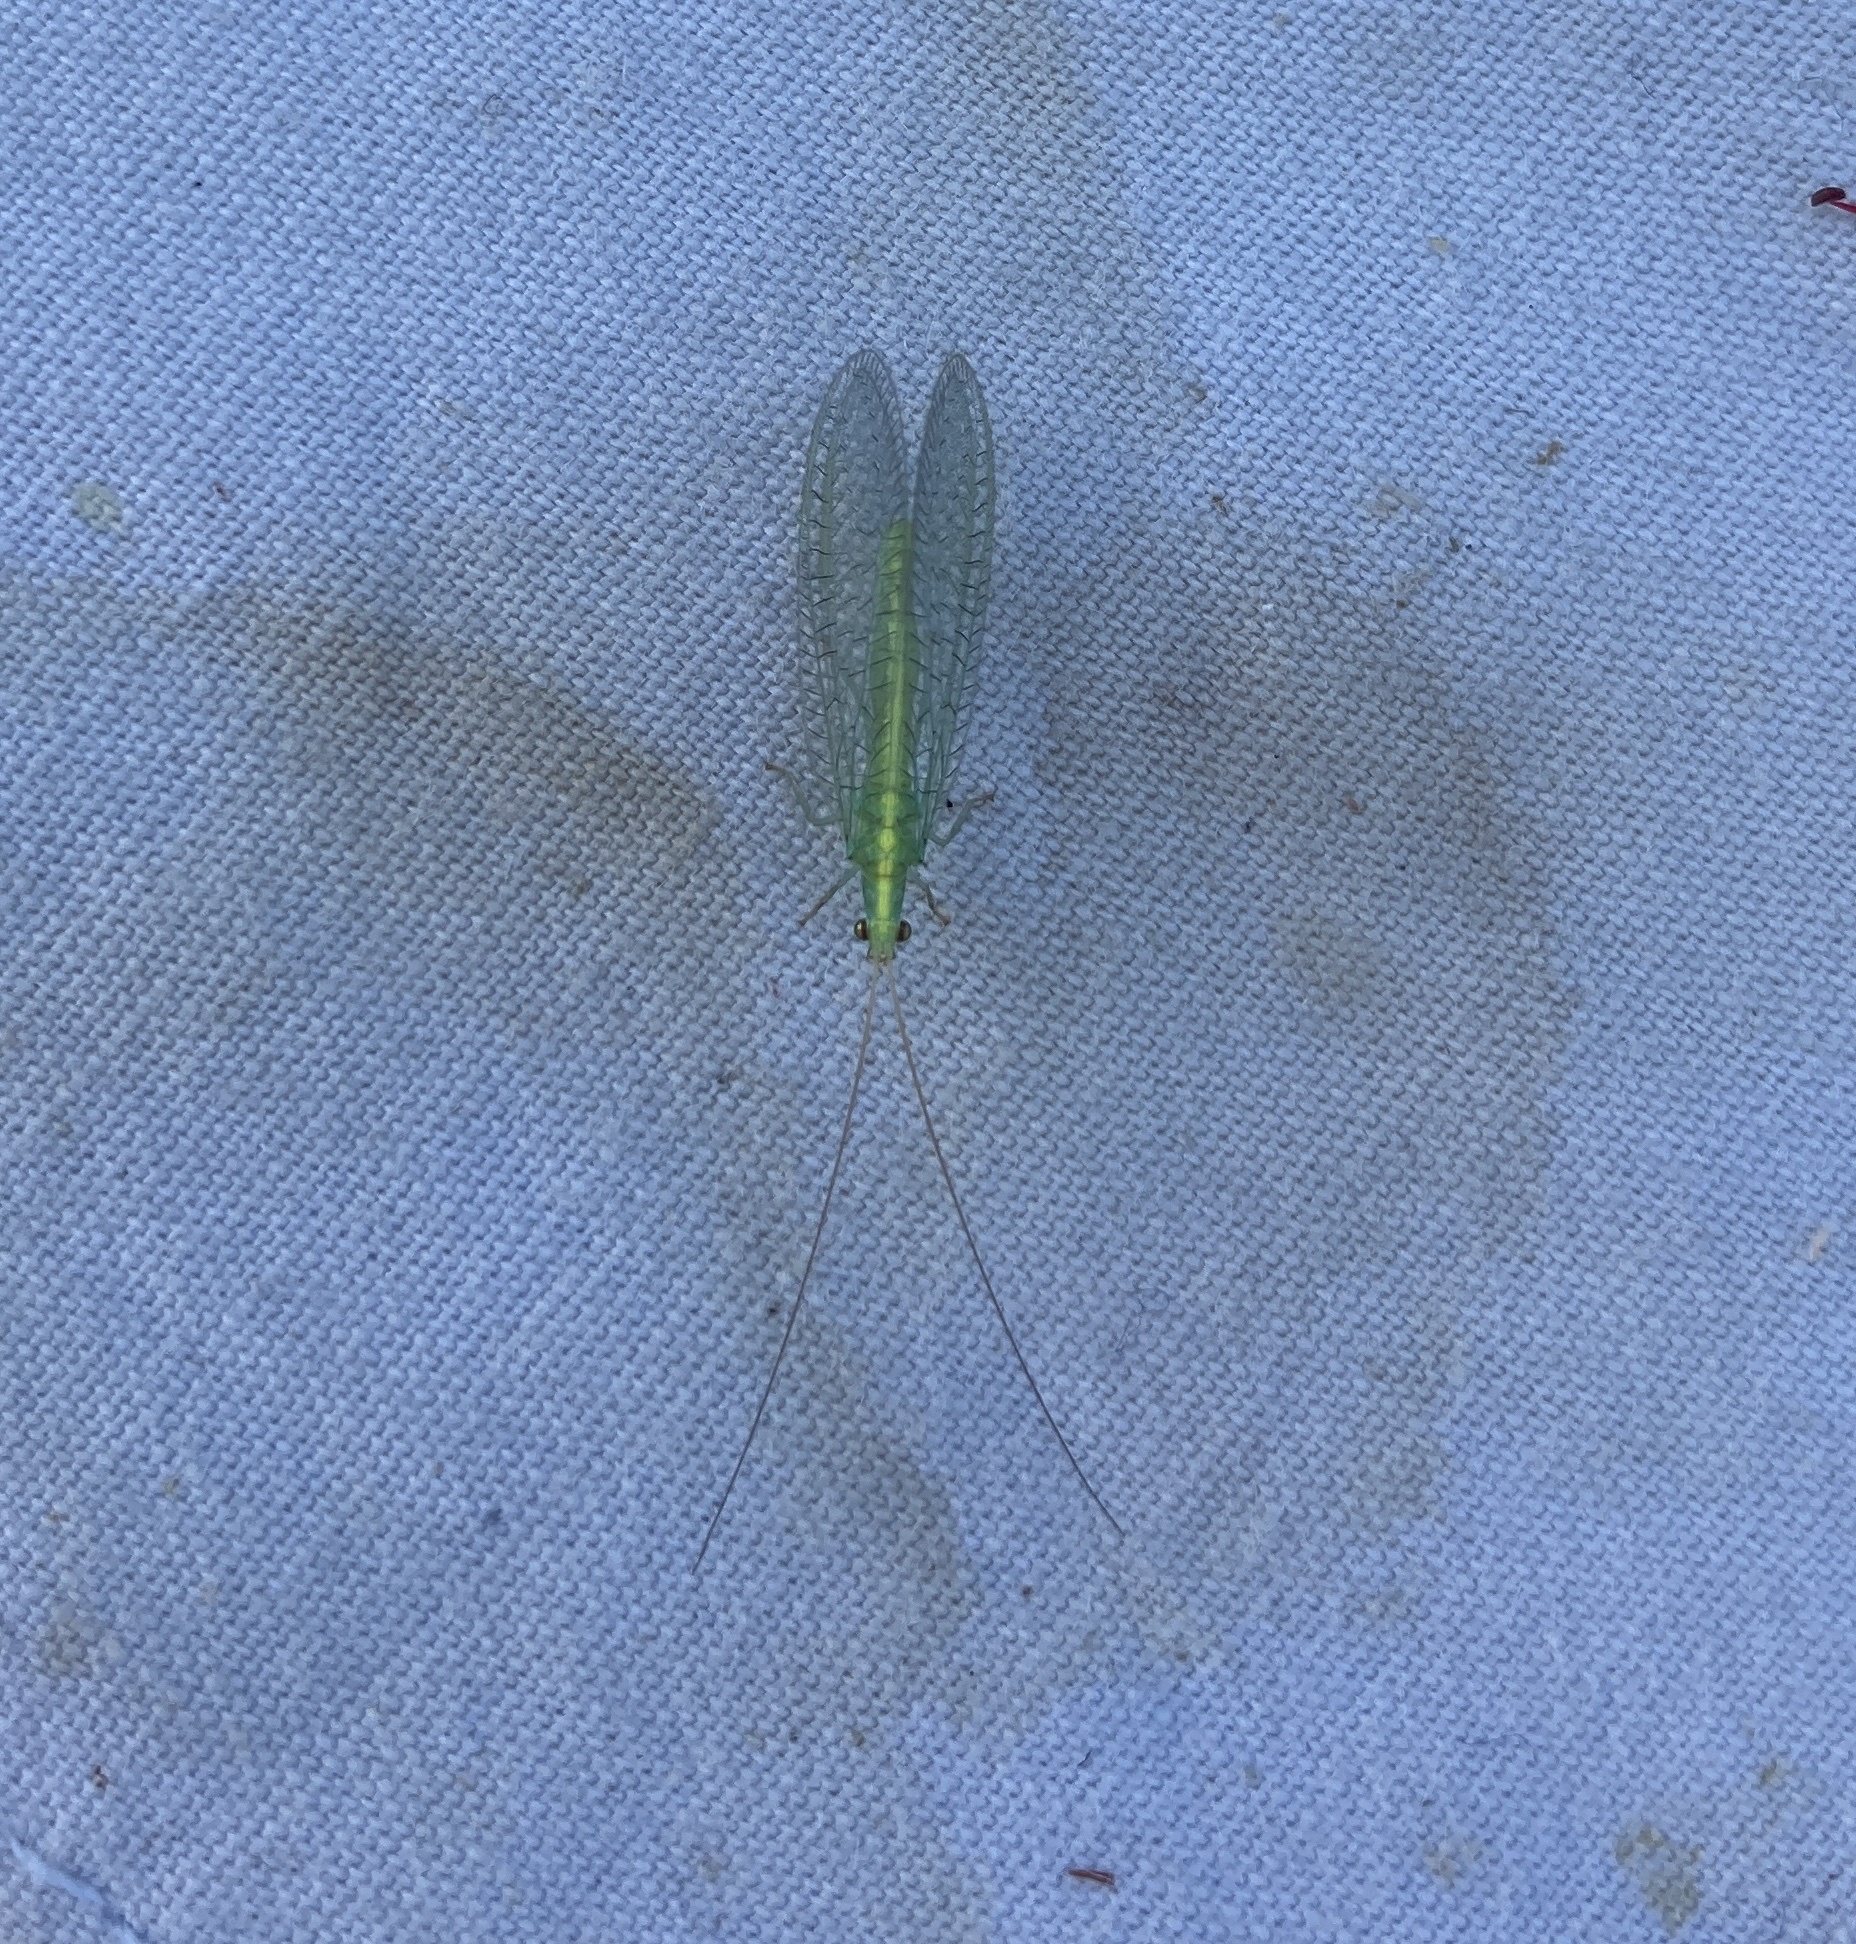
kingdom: Animalia
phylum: Arthropoda
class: Insecta
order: Neuroptera
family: Chrysopidae
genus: Mallada
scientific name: Mallada basalis
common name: Green lacewing
